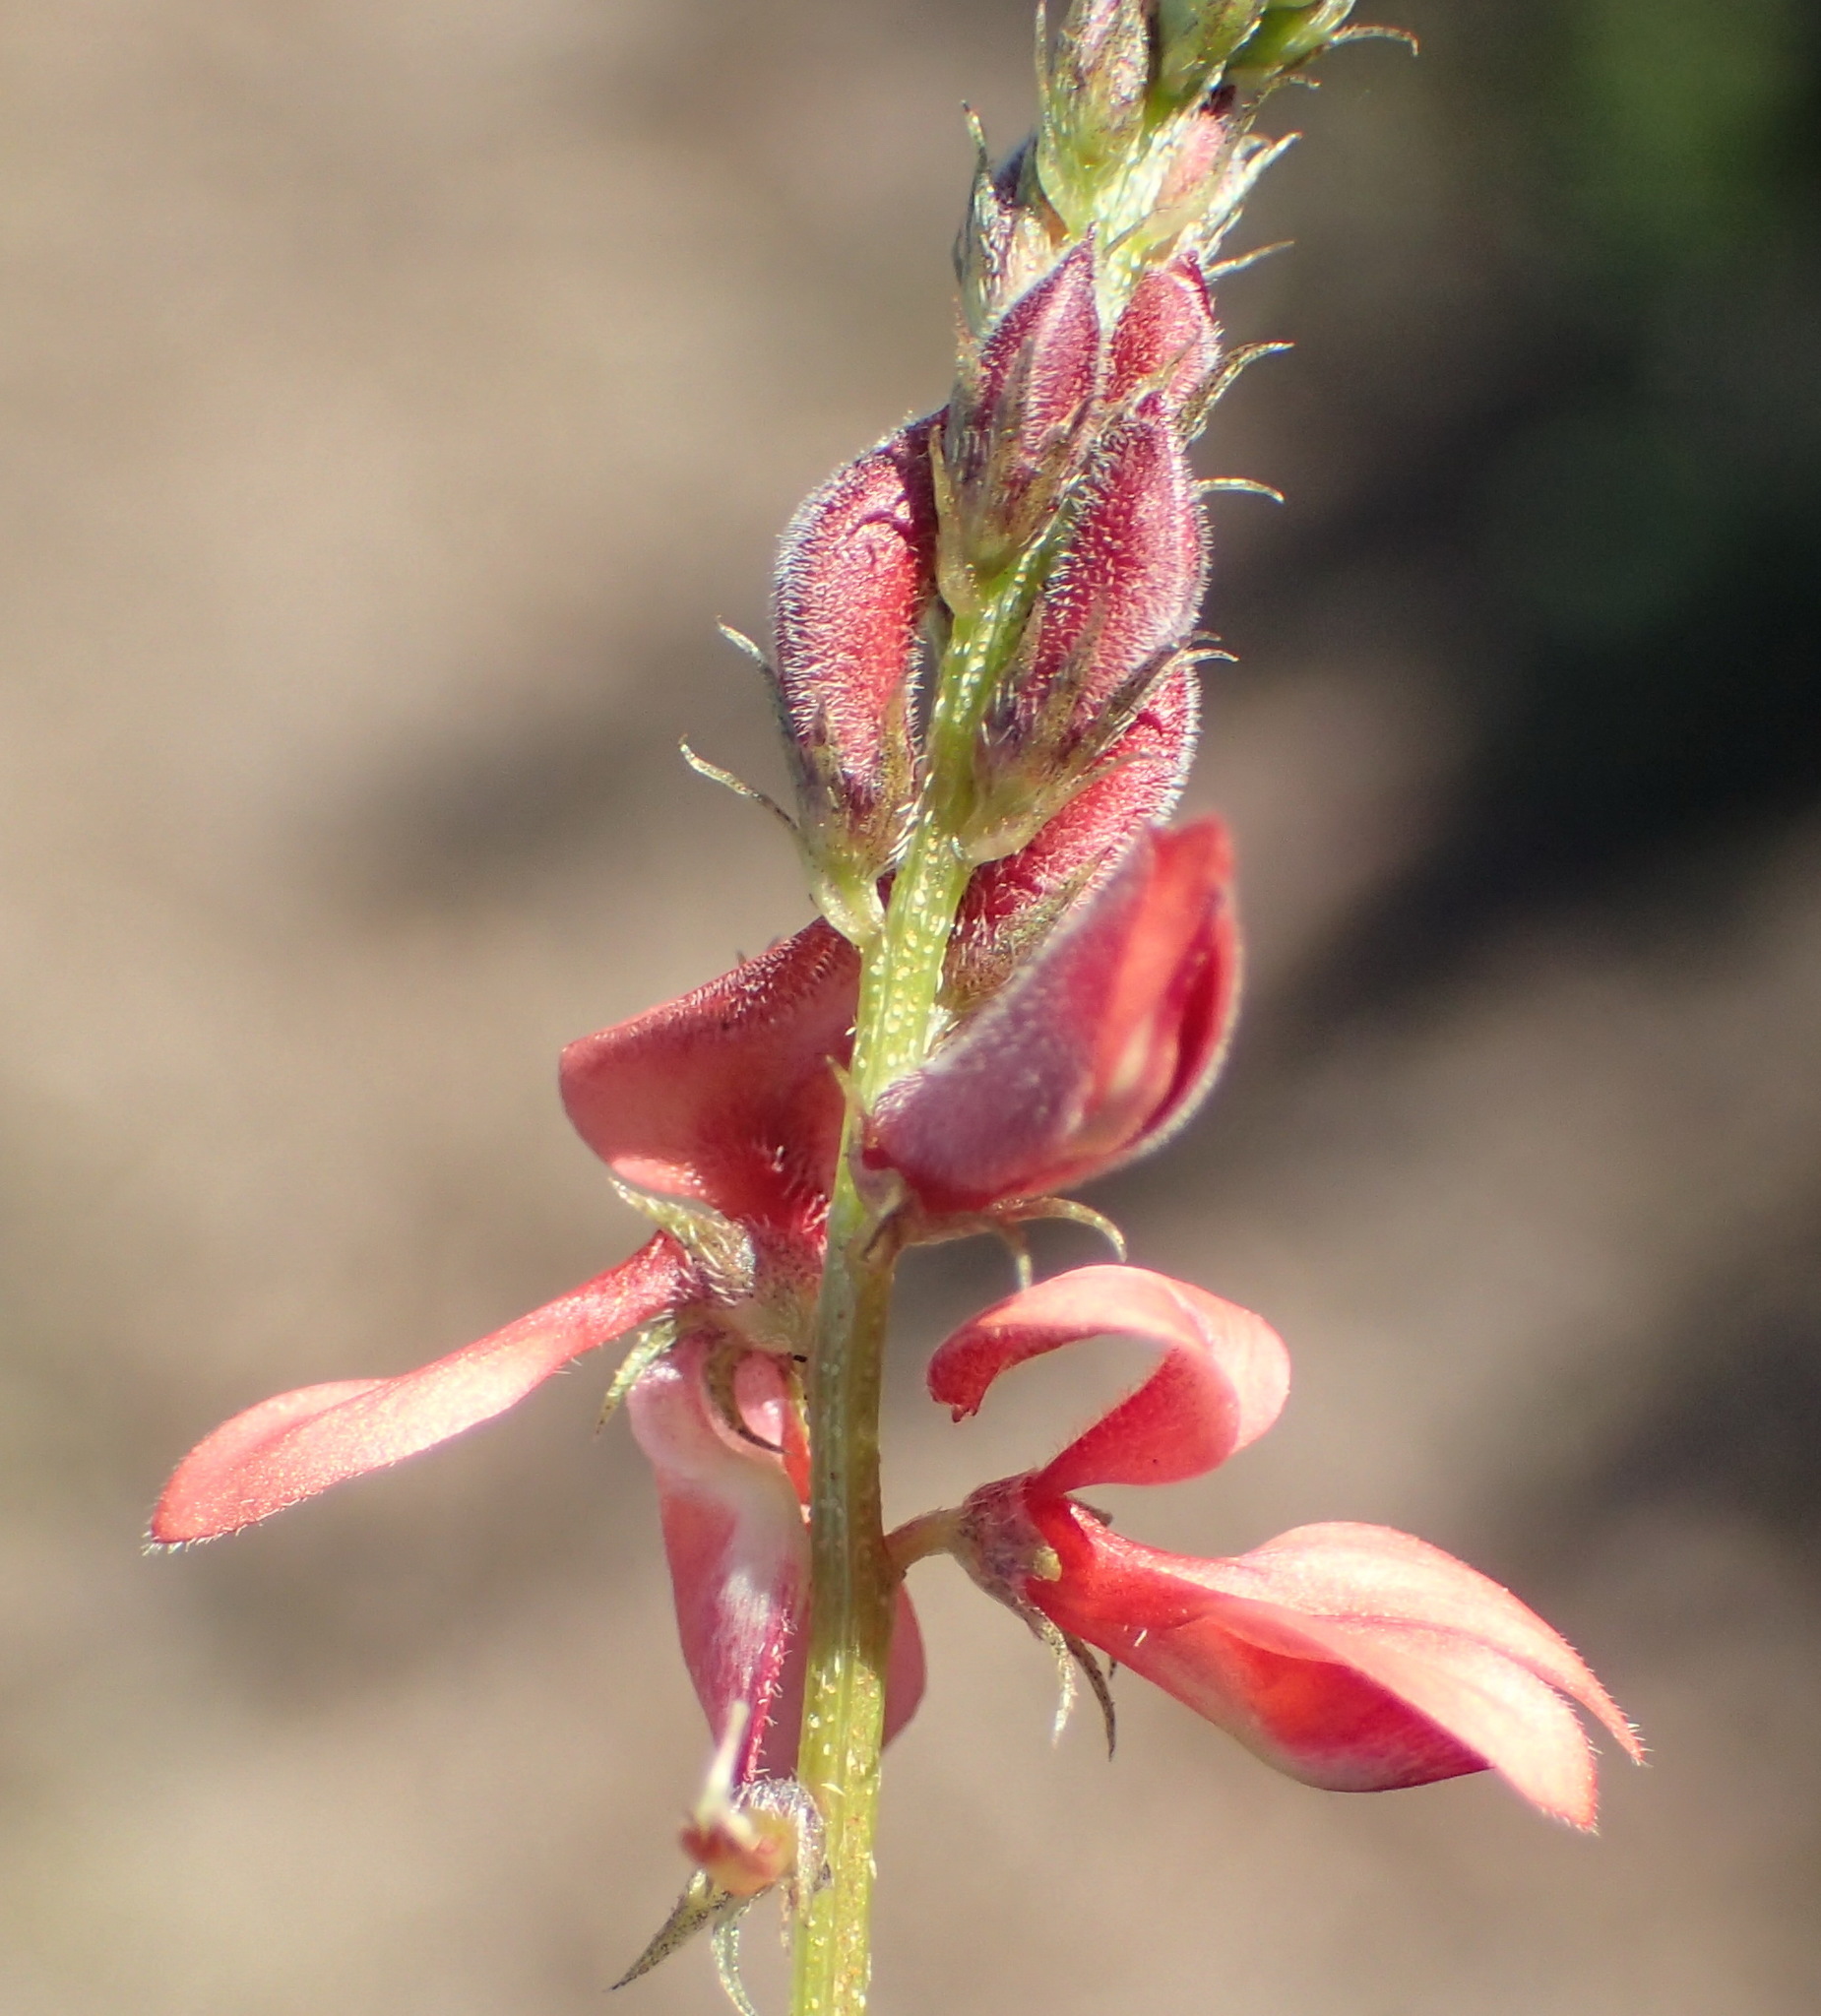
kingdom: Plantae
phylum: Tracheophyta
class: Magnoliopsida
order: Fabales
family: Fabaceae
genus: Indigofera
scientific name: Indigofera erecta
